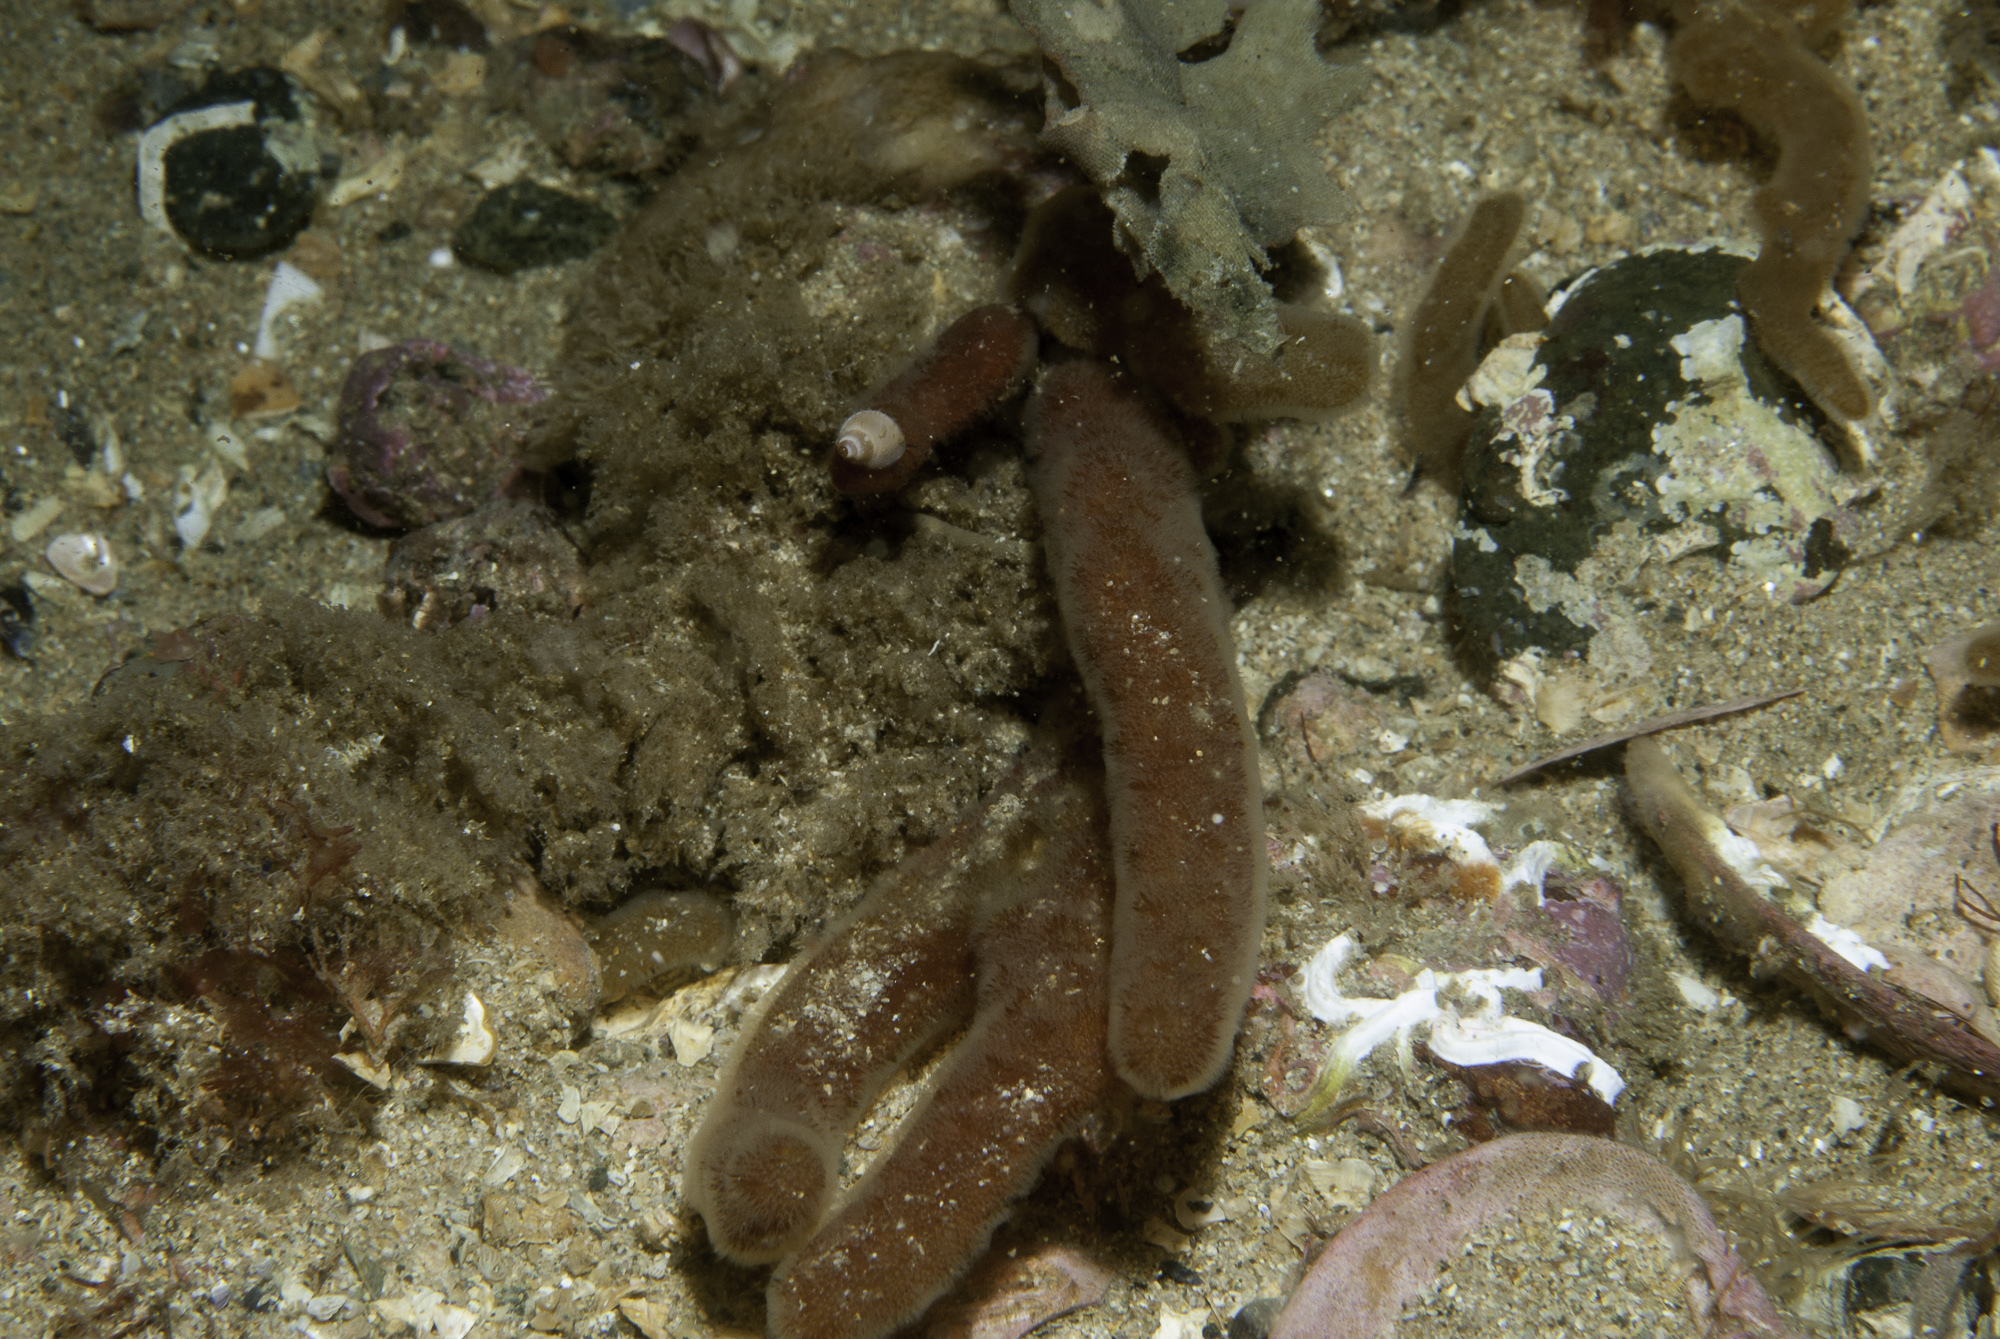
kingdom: Animalia
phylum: Bryozoa
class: Gymnolaemata
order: Ctenostomatida
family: Alcyonidiidae
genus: Alcyonidium
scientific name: Alcyonidium diaphanum
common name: Sea chervil
